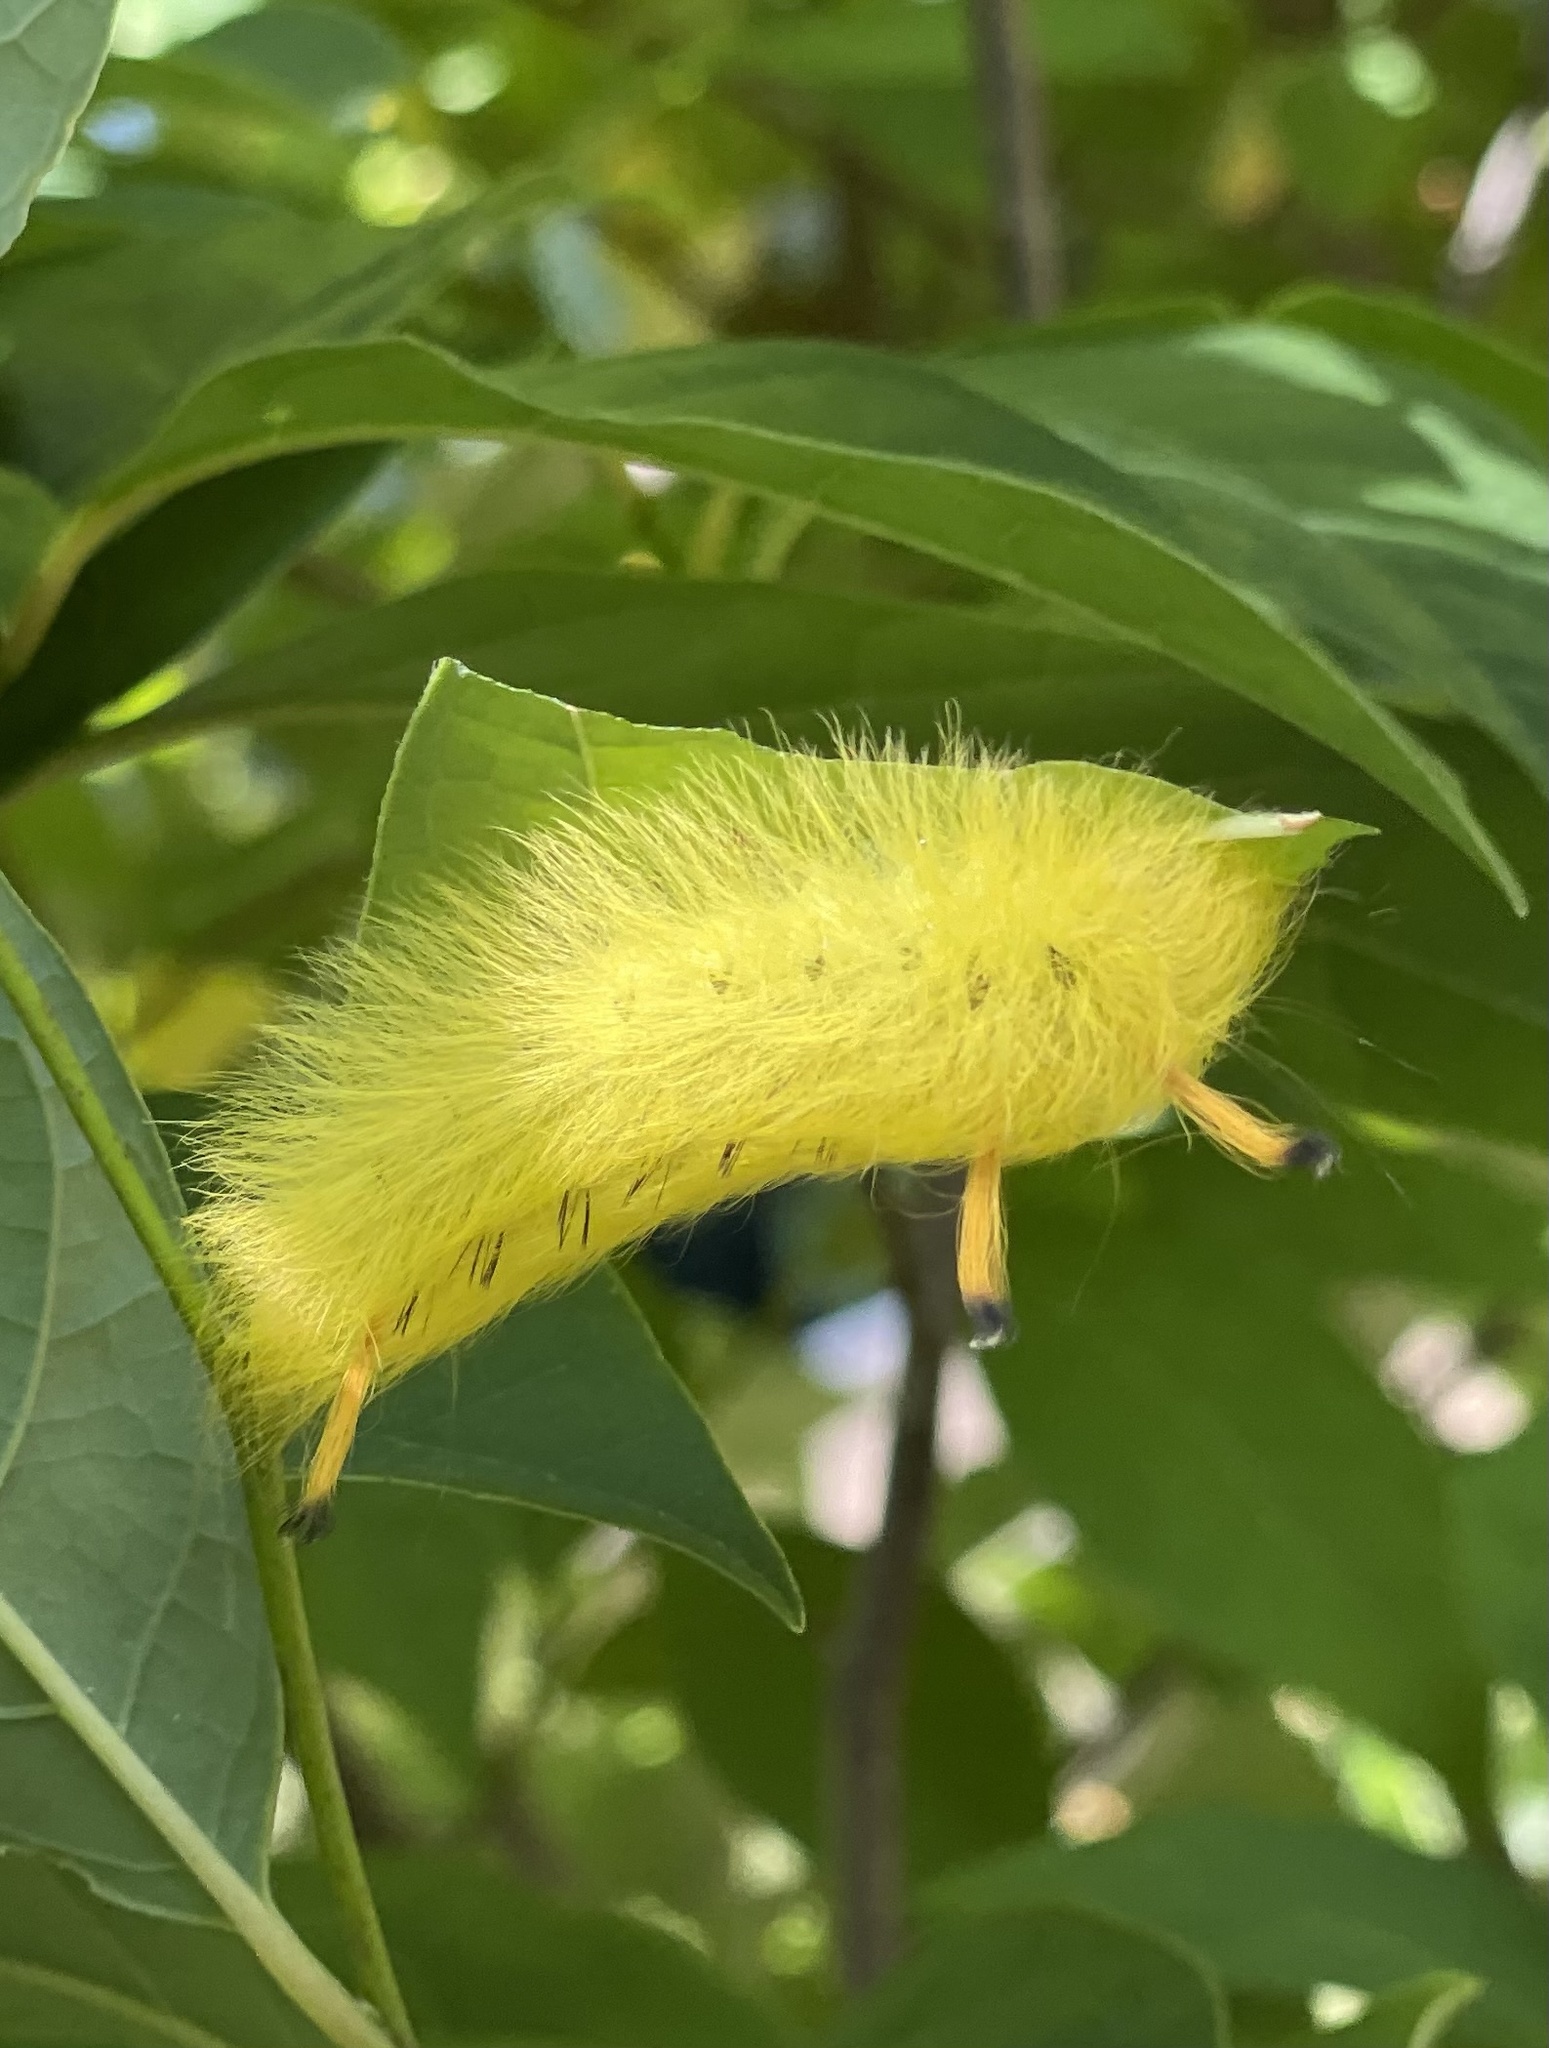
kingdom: Animalia
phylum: Arthropoda
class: Insecta
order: Lepidoptera
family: Apatelodidae
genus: Hygrochroa
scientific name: Hygrochroa Apatelodes torrefacta
